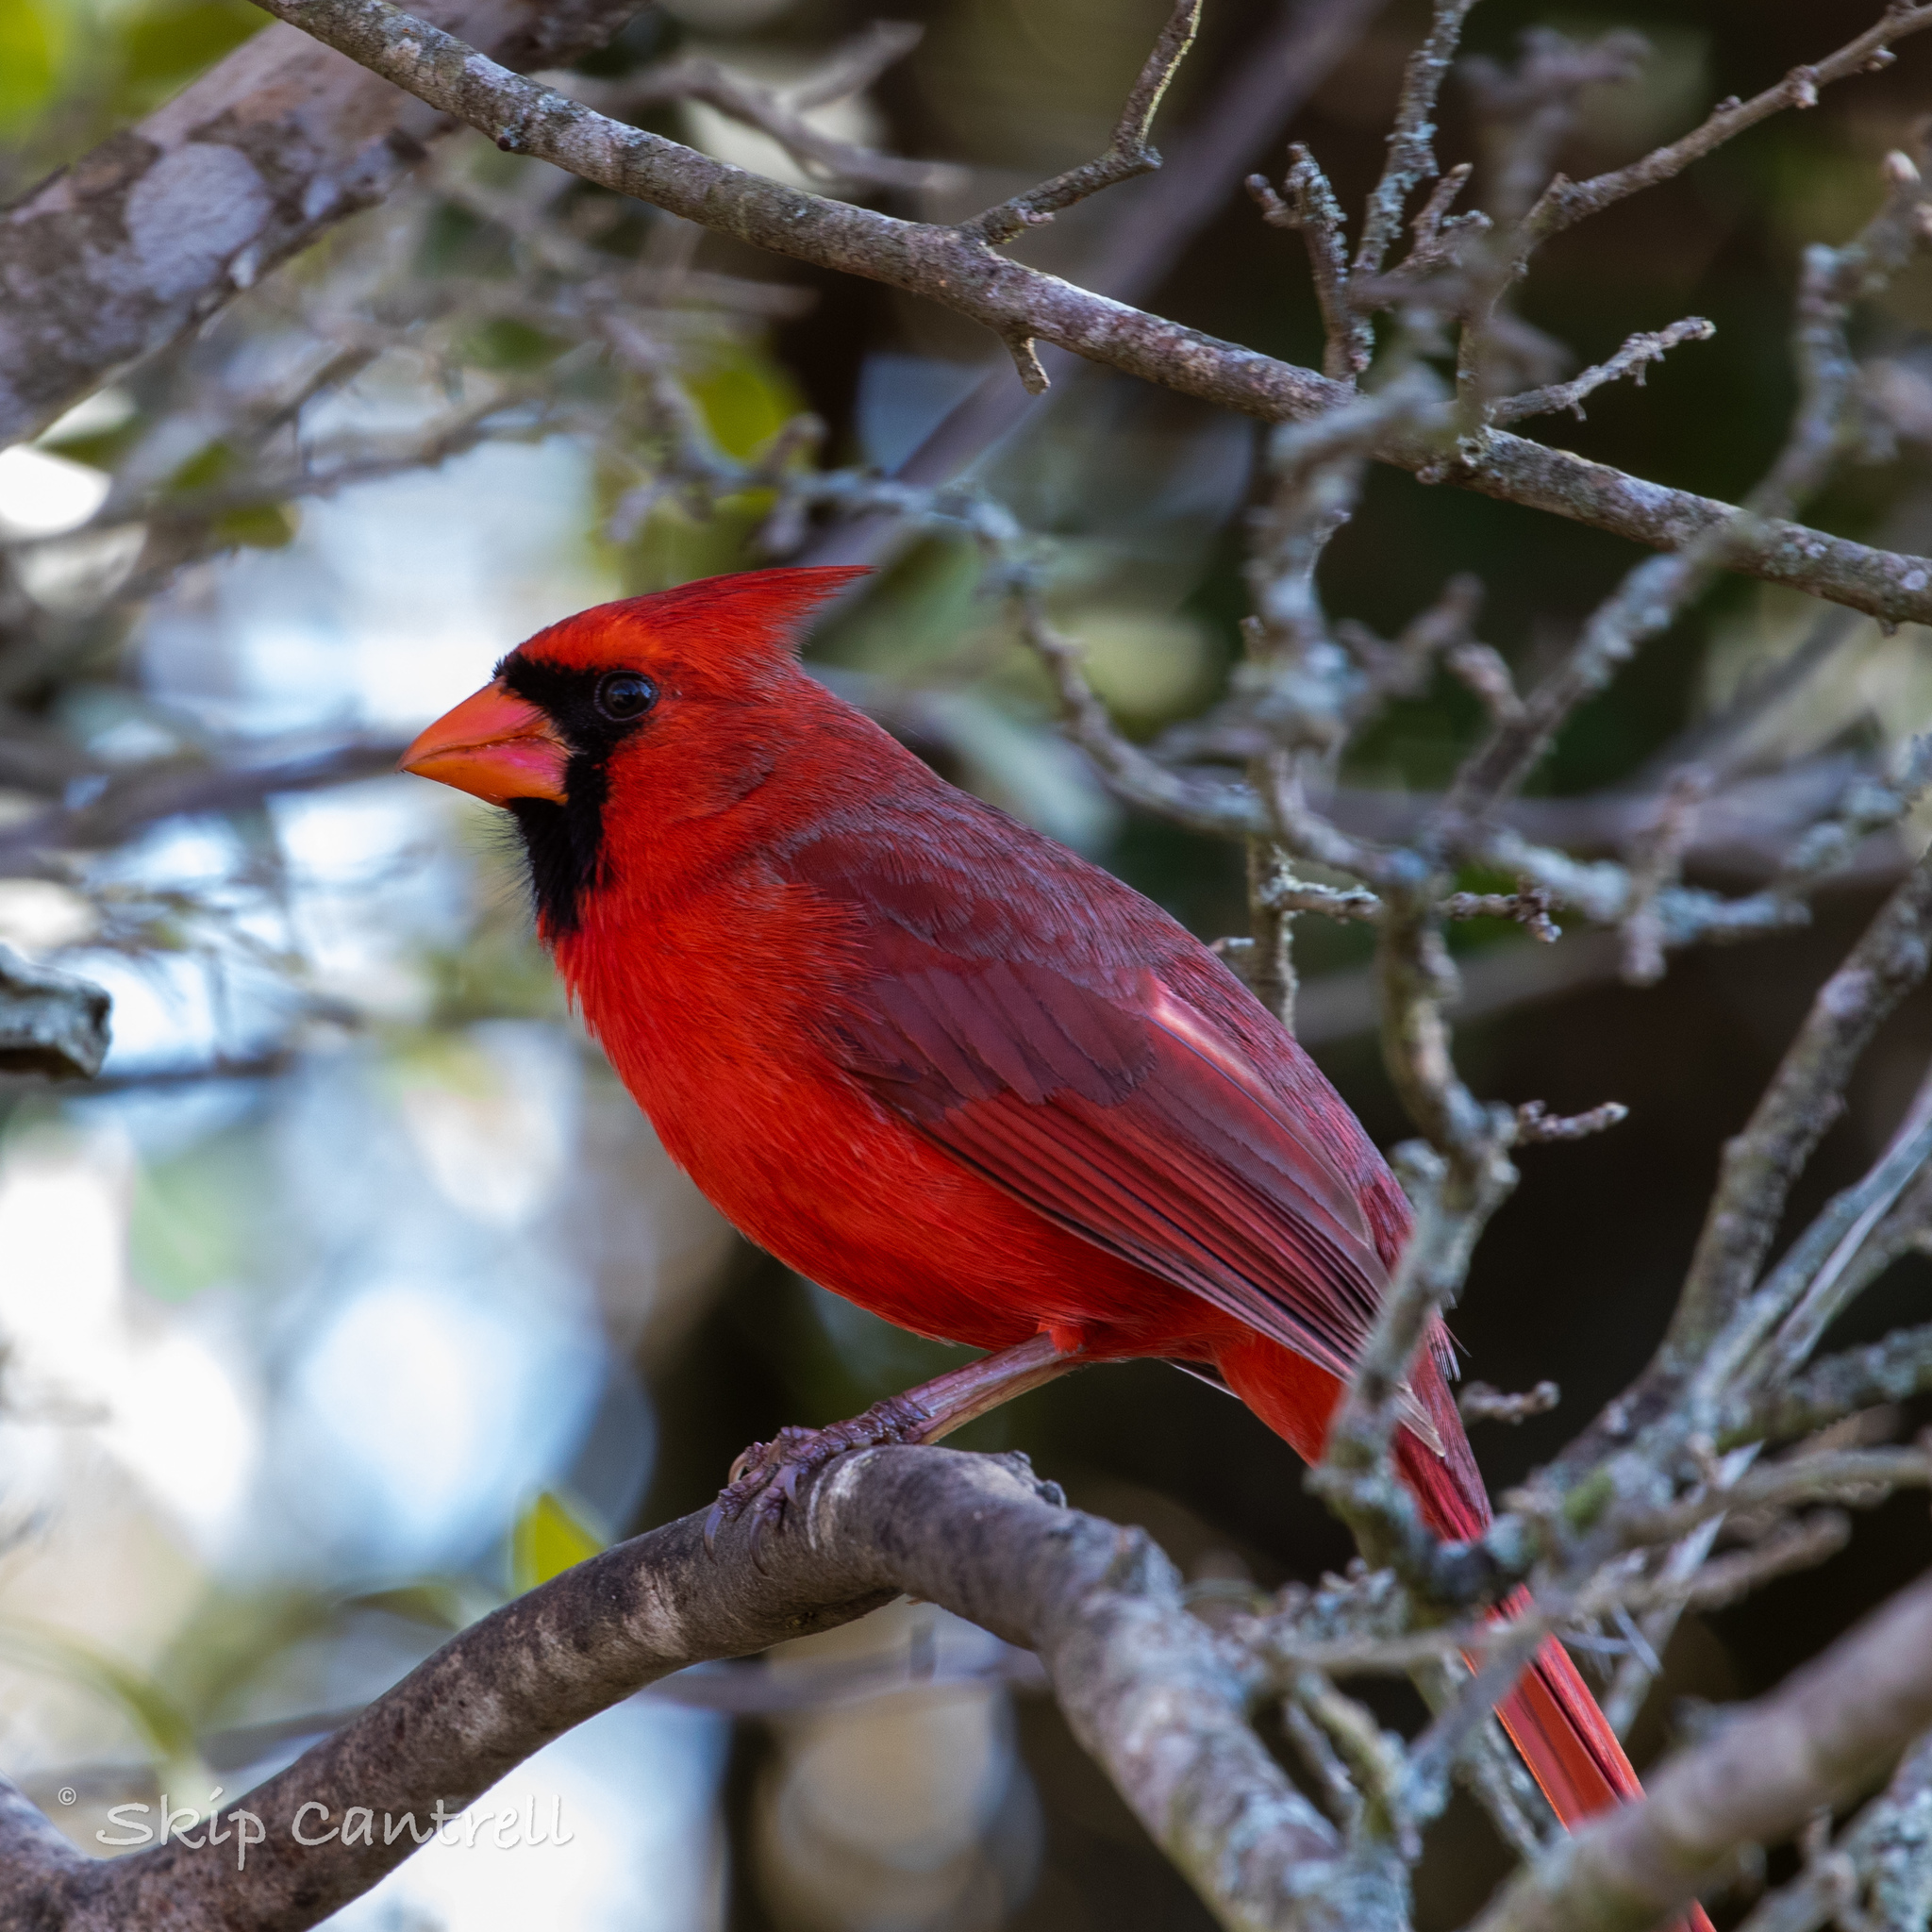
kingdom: Animalia
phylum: Chordata
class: Aves
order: Passeriformes
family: Cardinalidae
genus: Cardinalis
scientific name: Cardinalis cardinalis
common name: Northern cardinal
